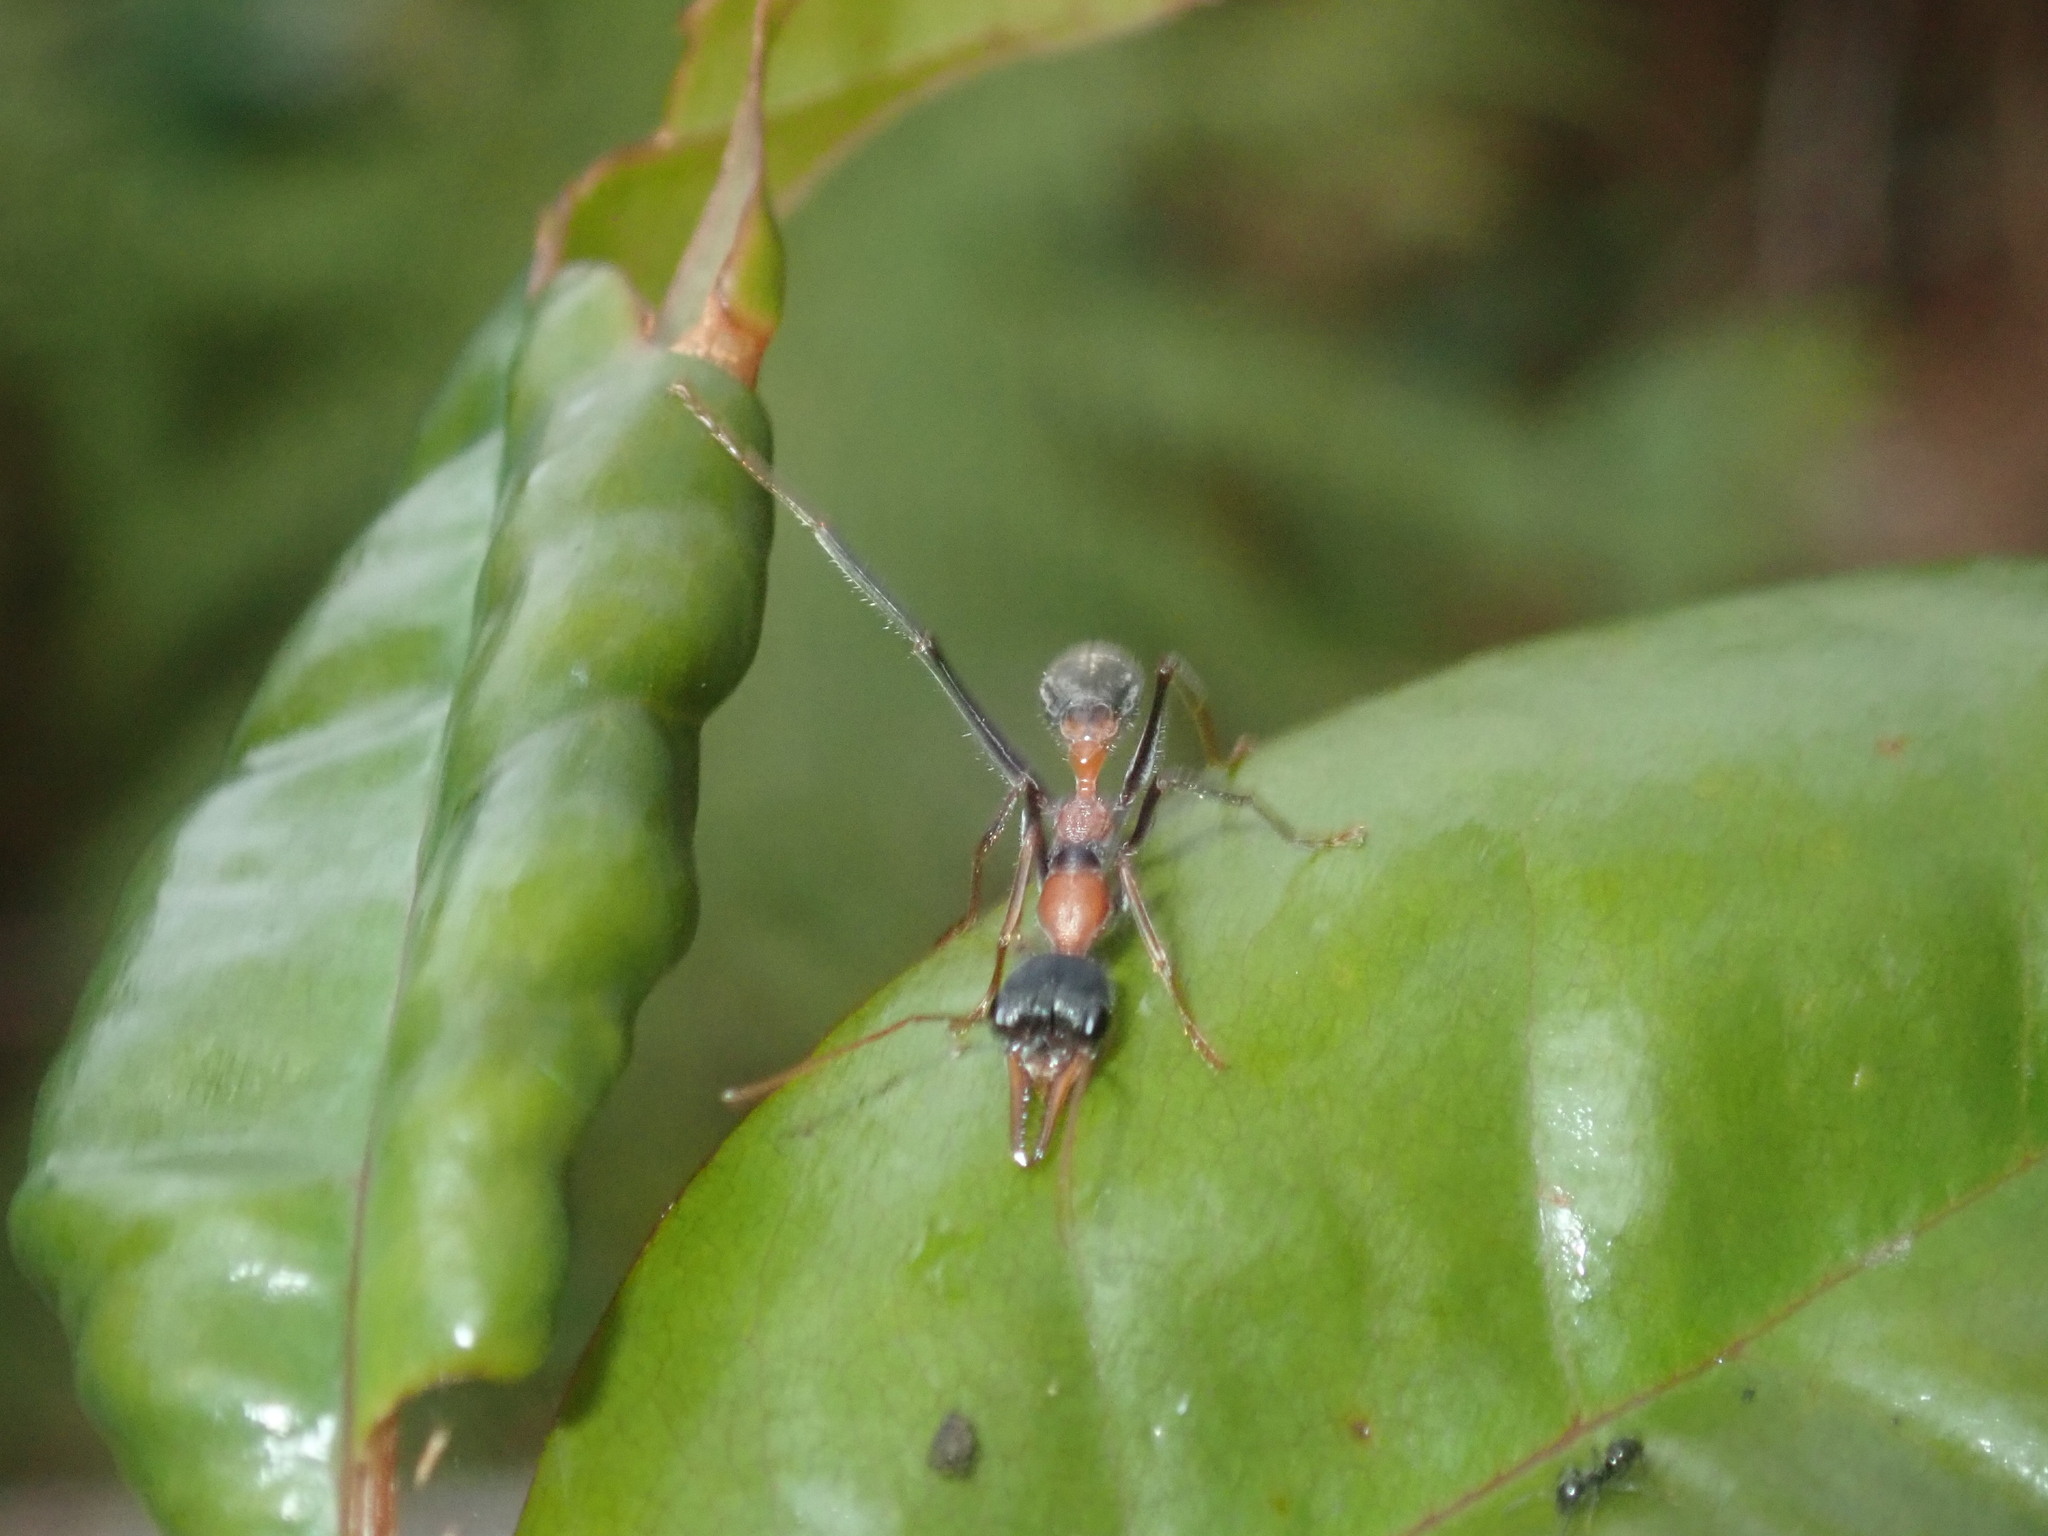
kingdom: Animalia
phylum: Arthropoda
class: Insecta
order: Hymenoptera
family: Formicidae
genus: Myrmecia
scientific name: Myrmecia nigrocincta
